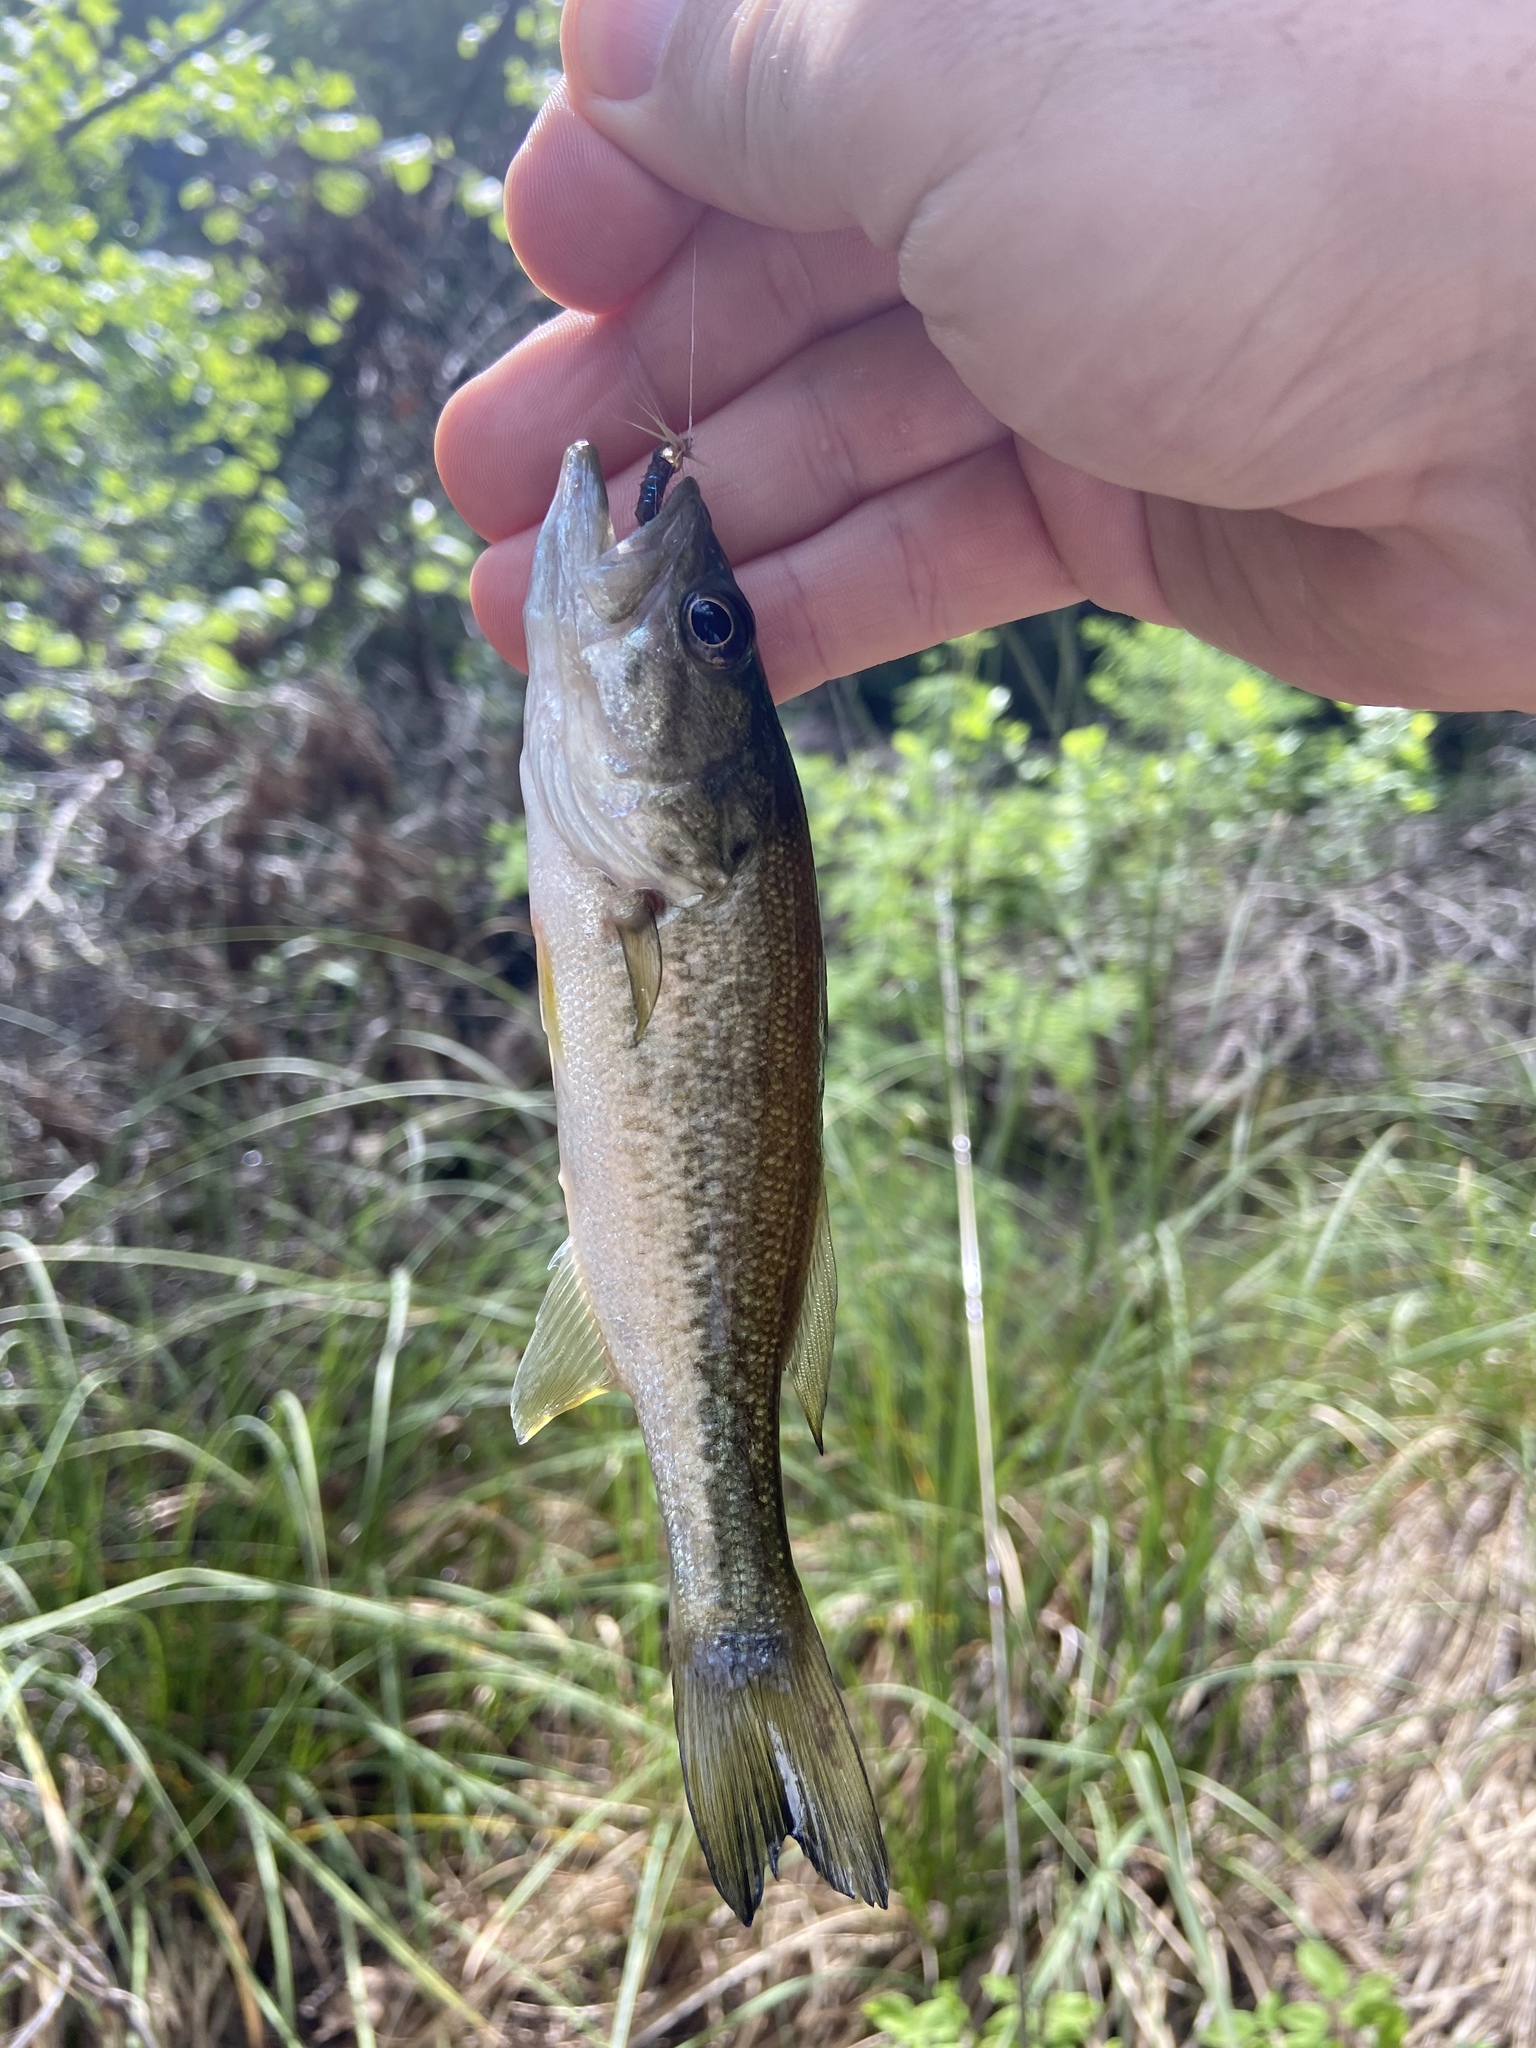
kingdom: Animalia
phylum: Chordata
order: Perciformes
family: Centrarchidae
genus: Micropterus
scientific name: Micropterus
